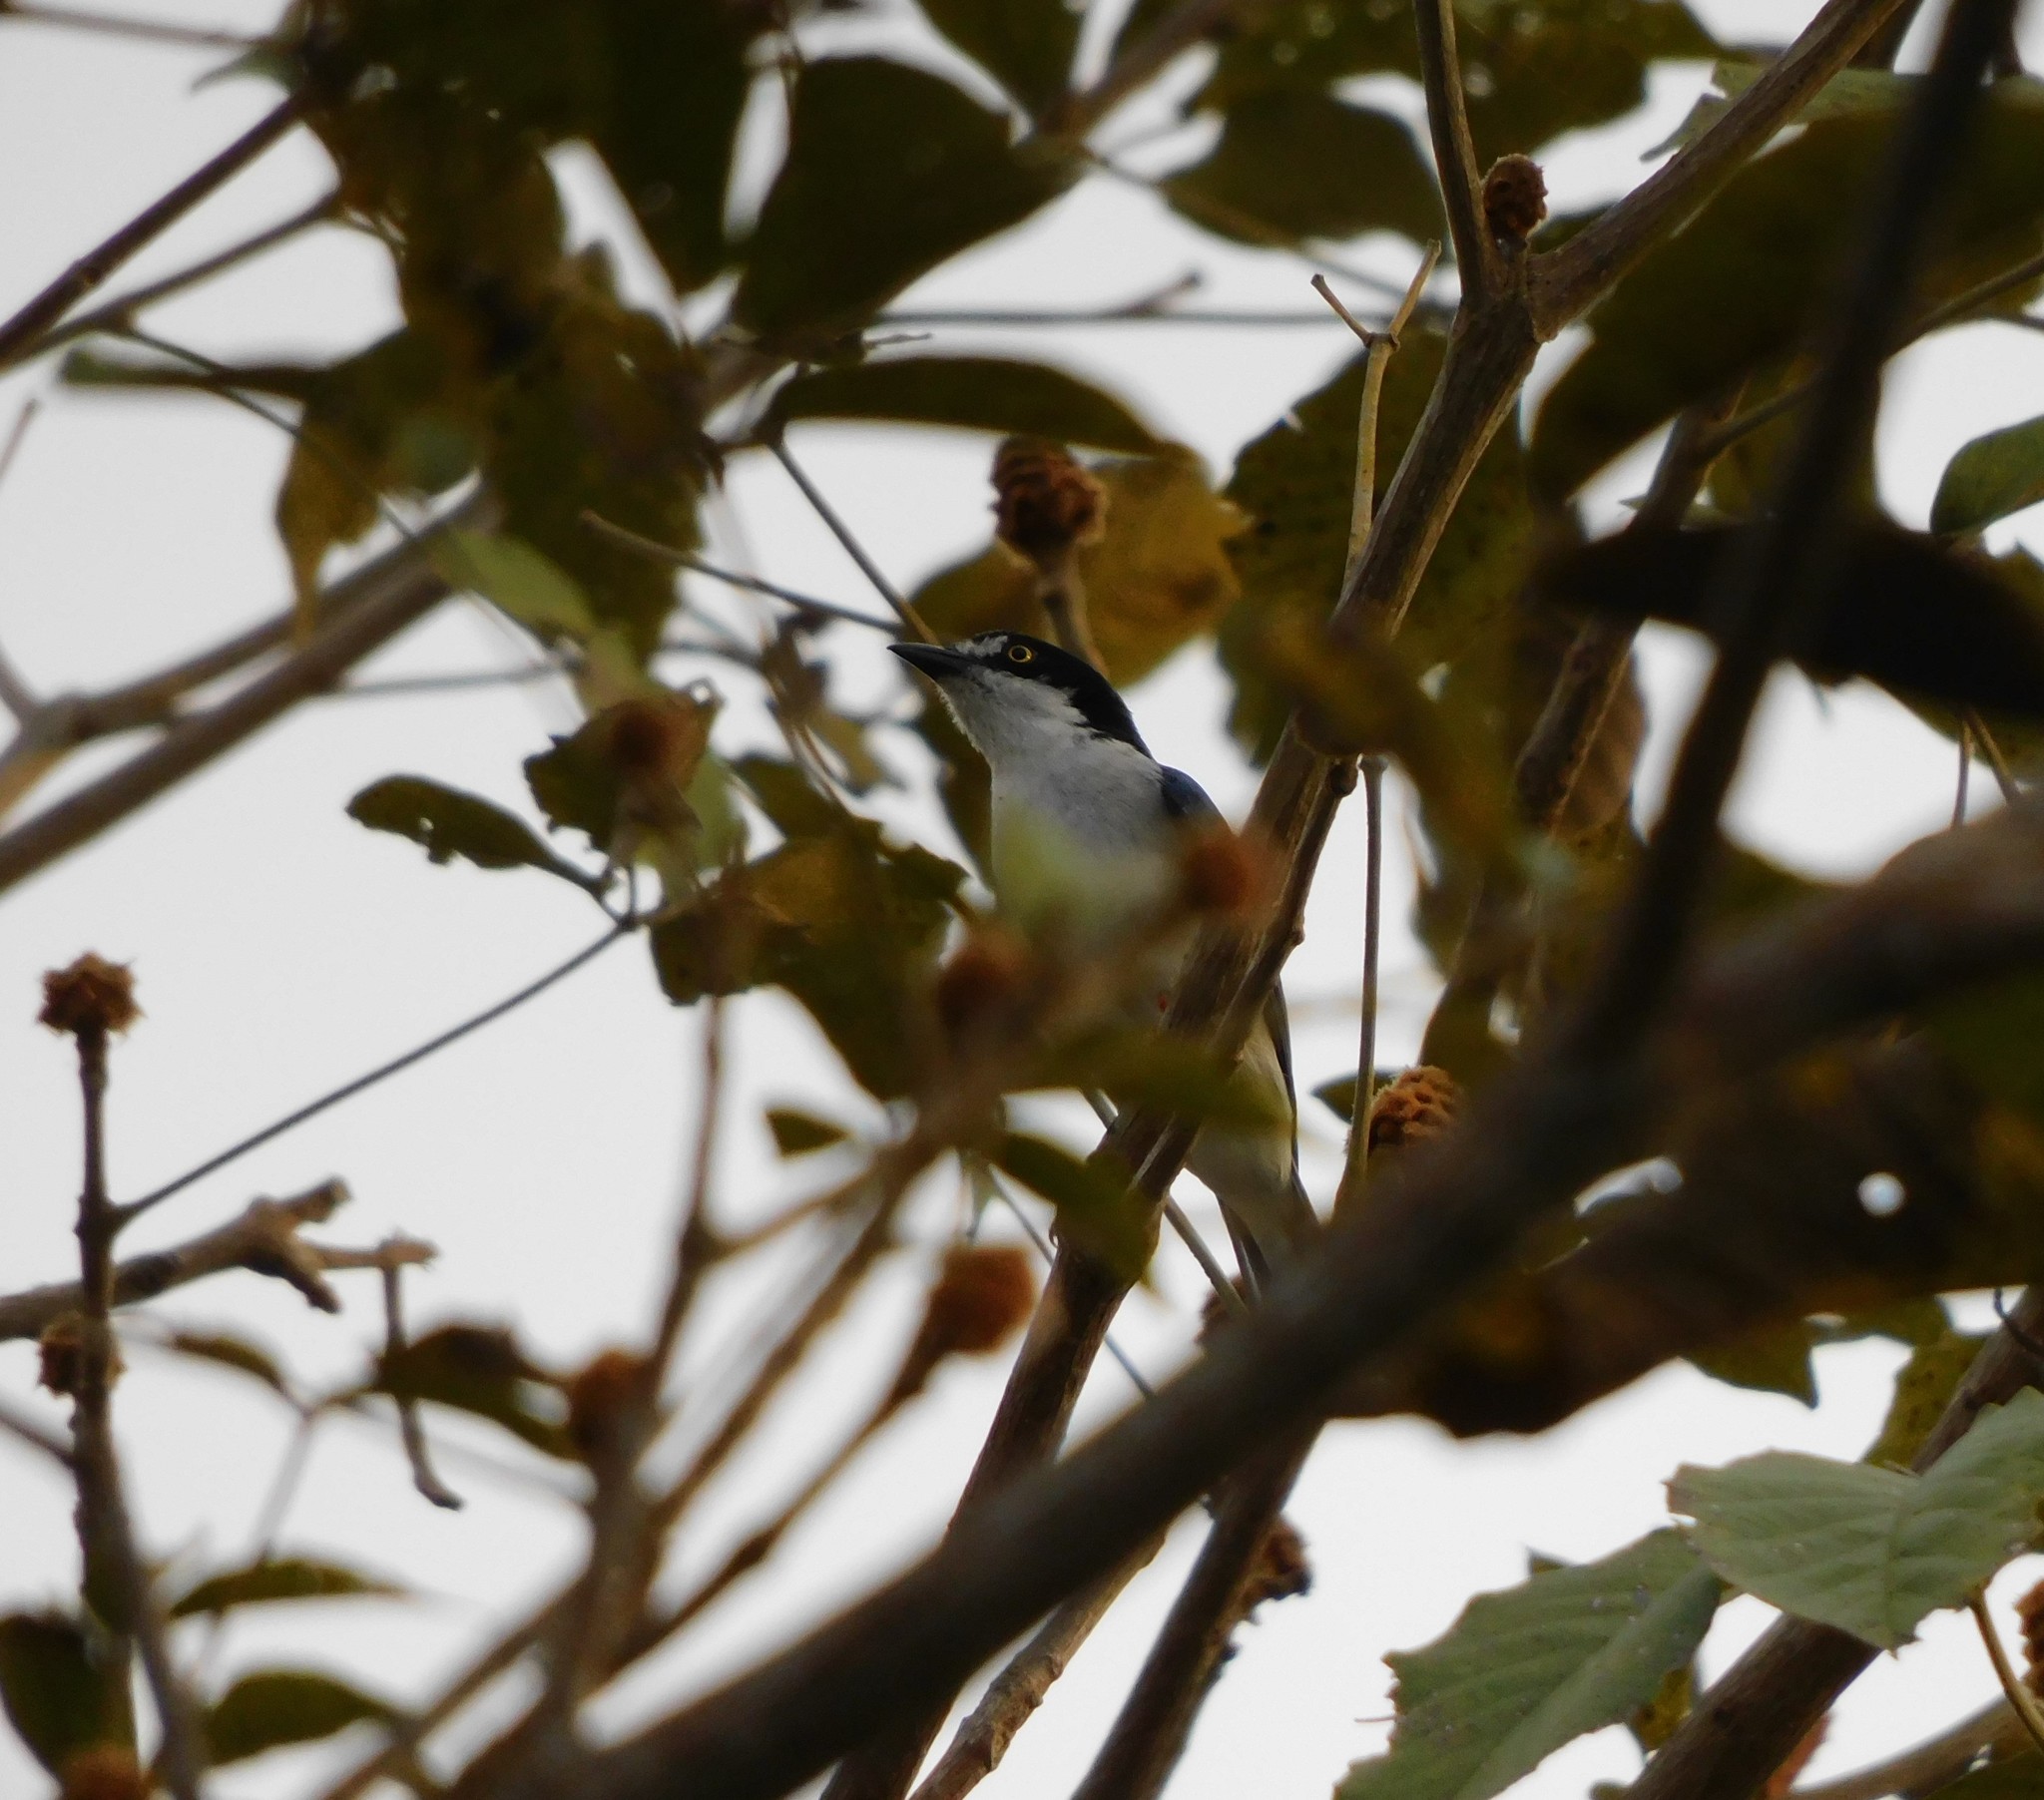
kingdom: Animalia
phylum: Chordata
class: Aves
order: Passeriformes
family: Thraupidae
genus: Nemosia
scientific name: Nemosia pileata
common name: Hooded tanager
